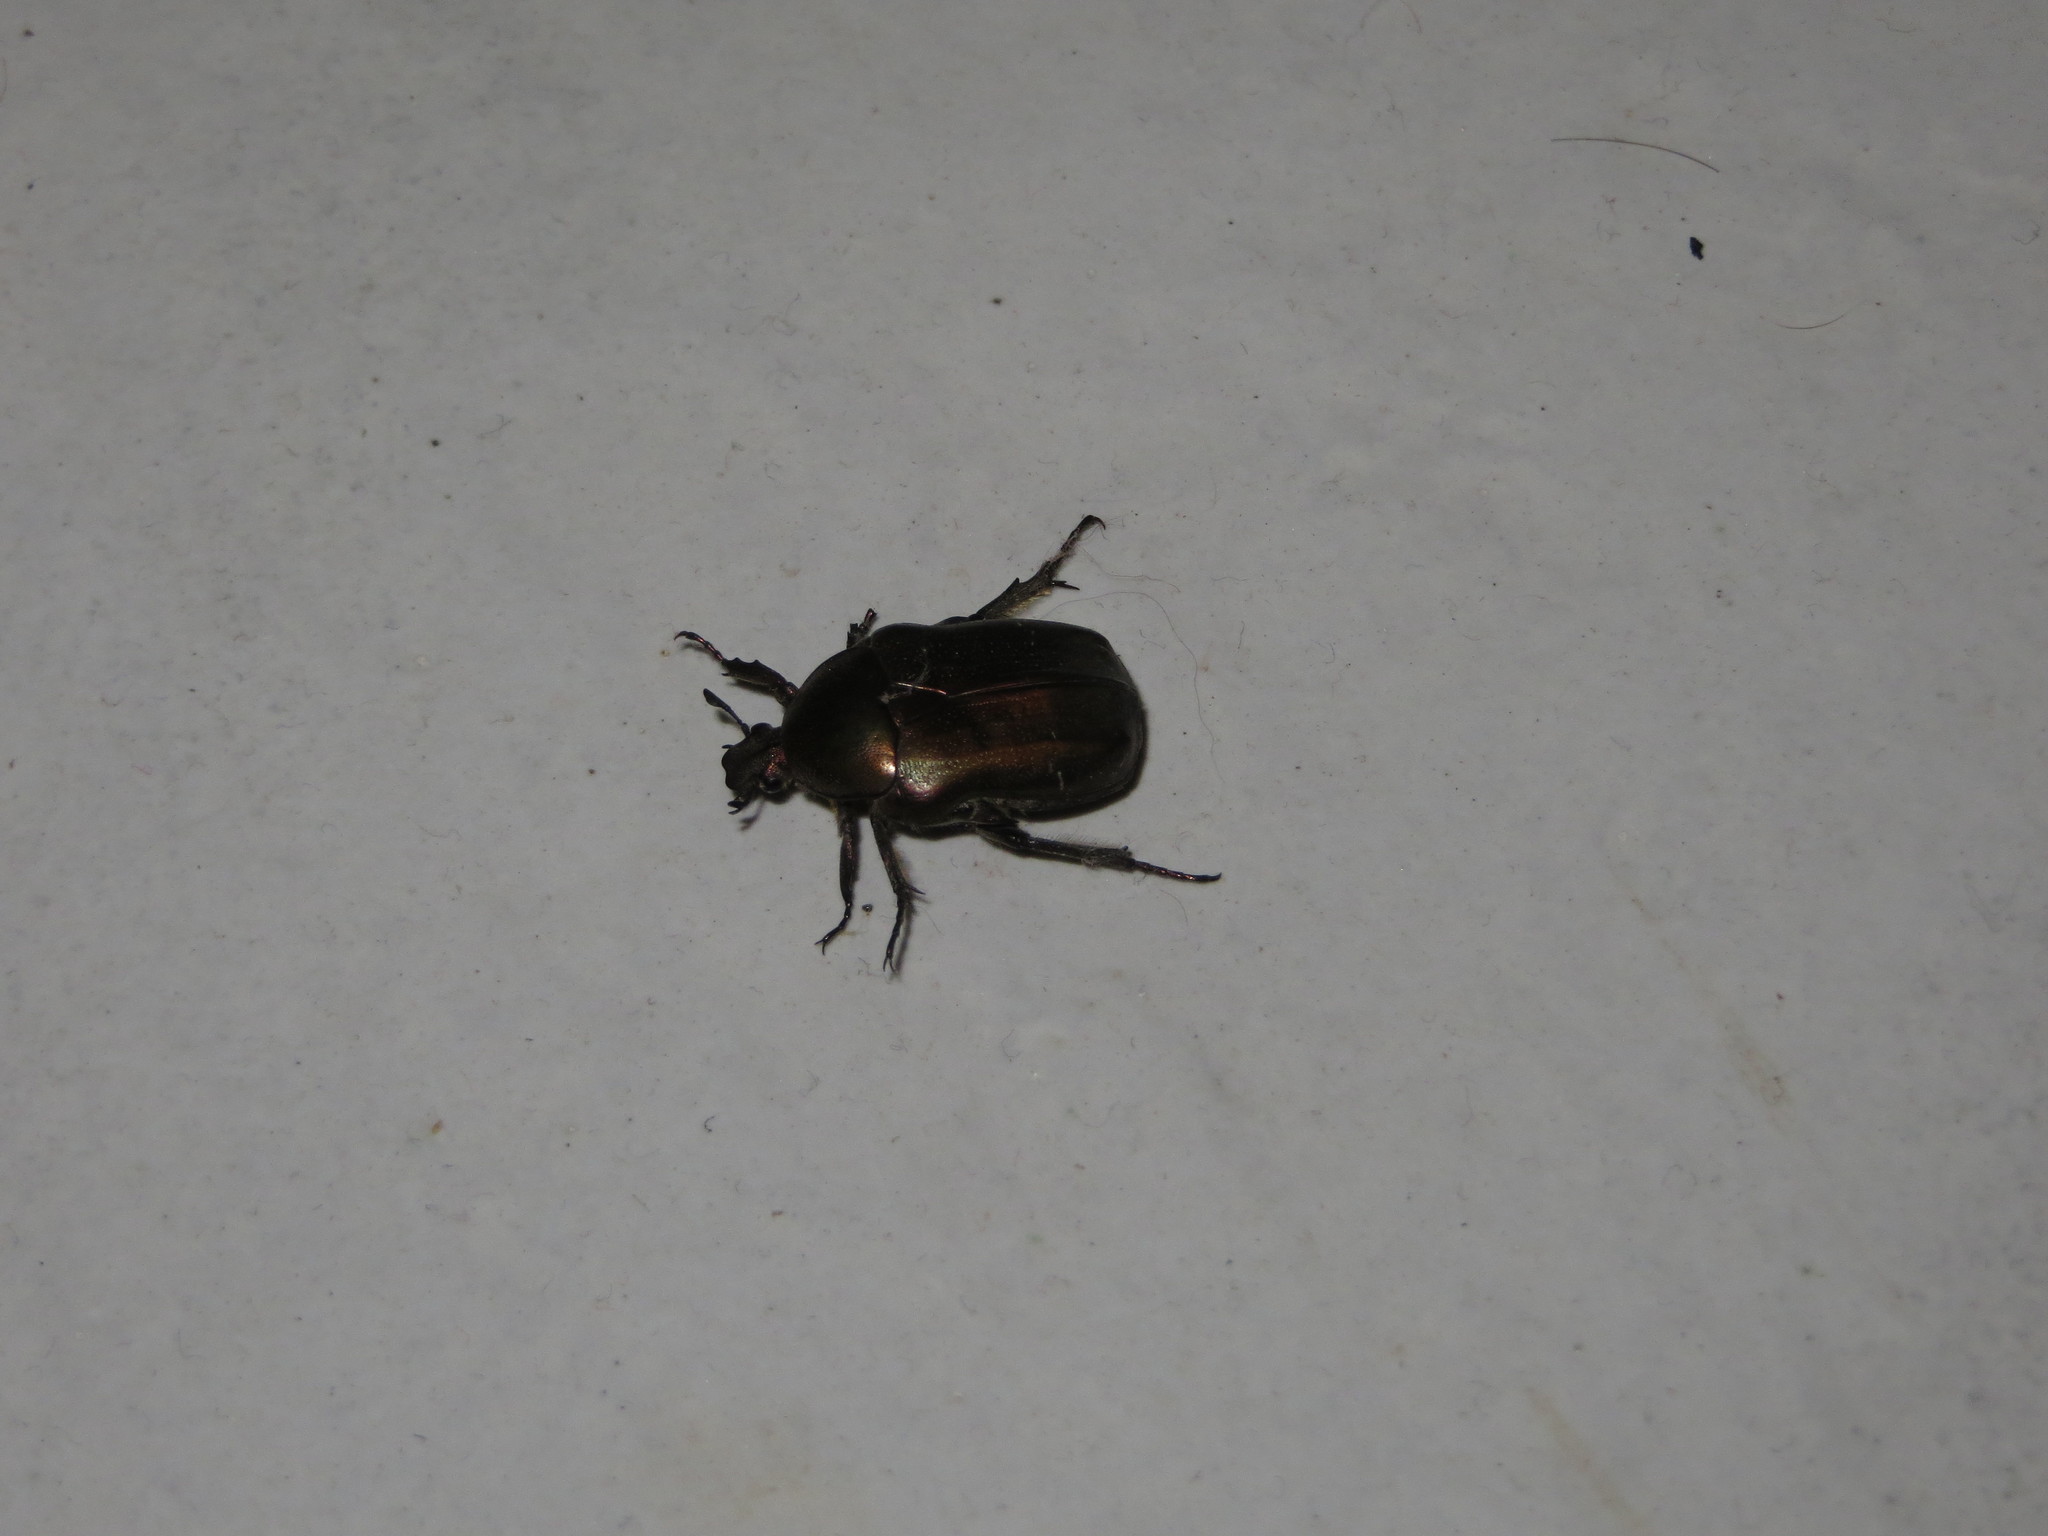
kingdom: Animalia
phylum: Arthropoda
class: Insecta
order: Coleoptera
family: Scarabaeidae
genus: Cetonia
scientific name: Cetonia aurata
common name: Rose chafer
